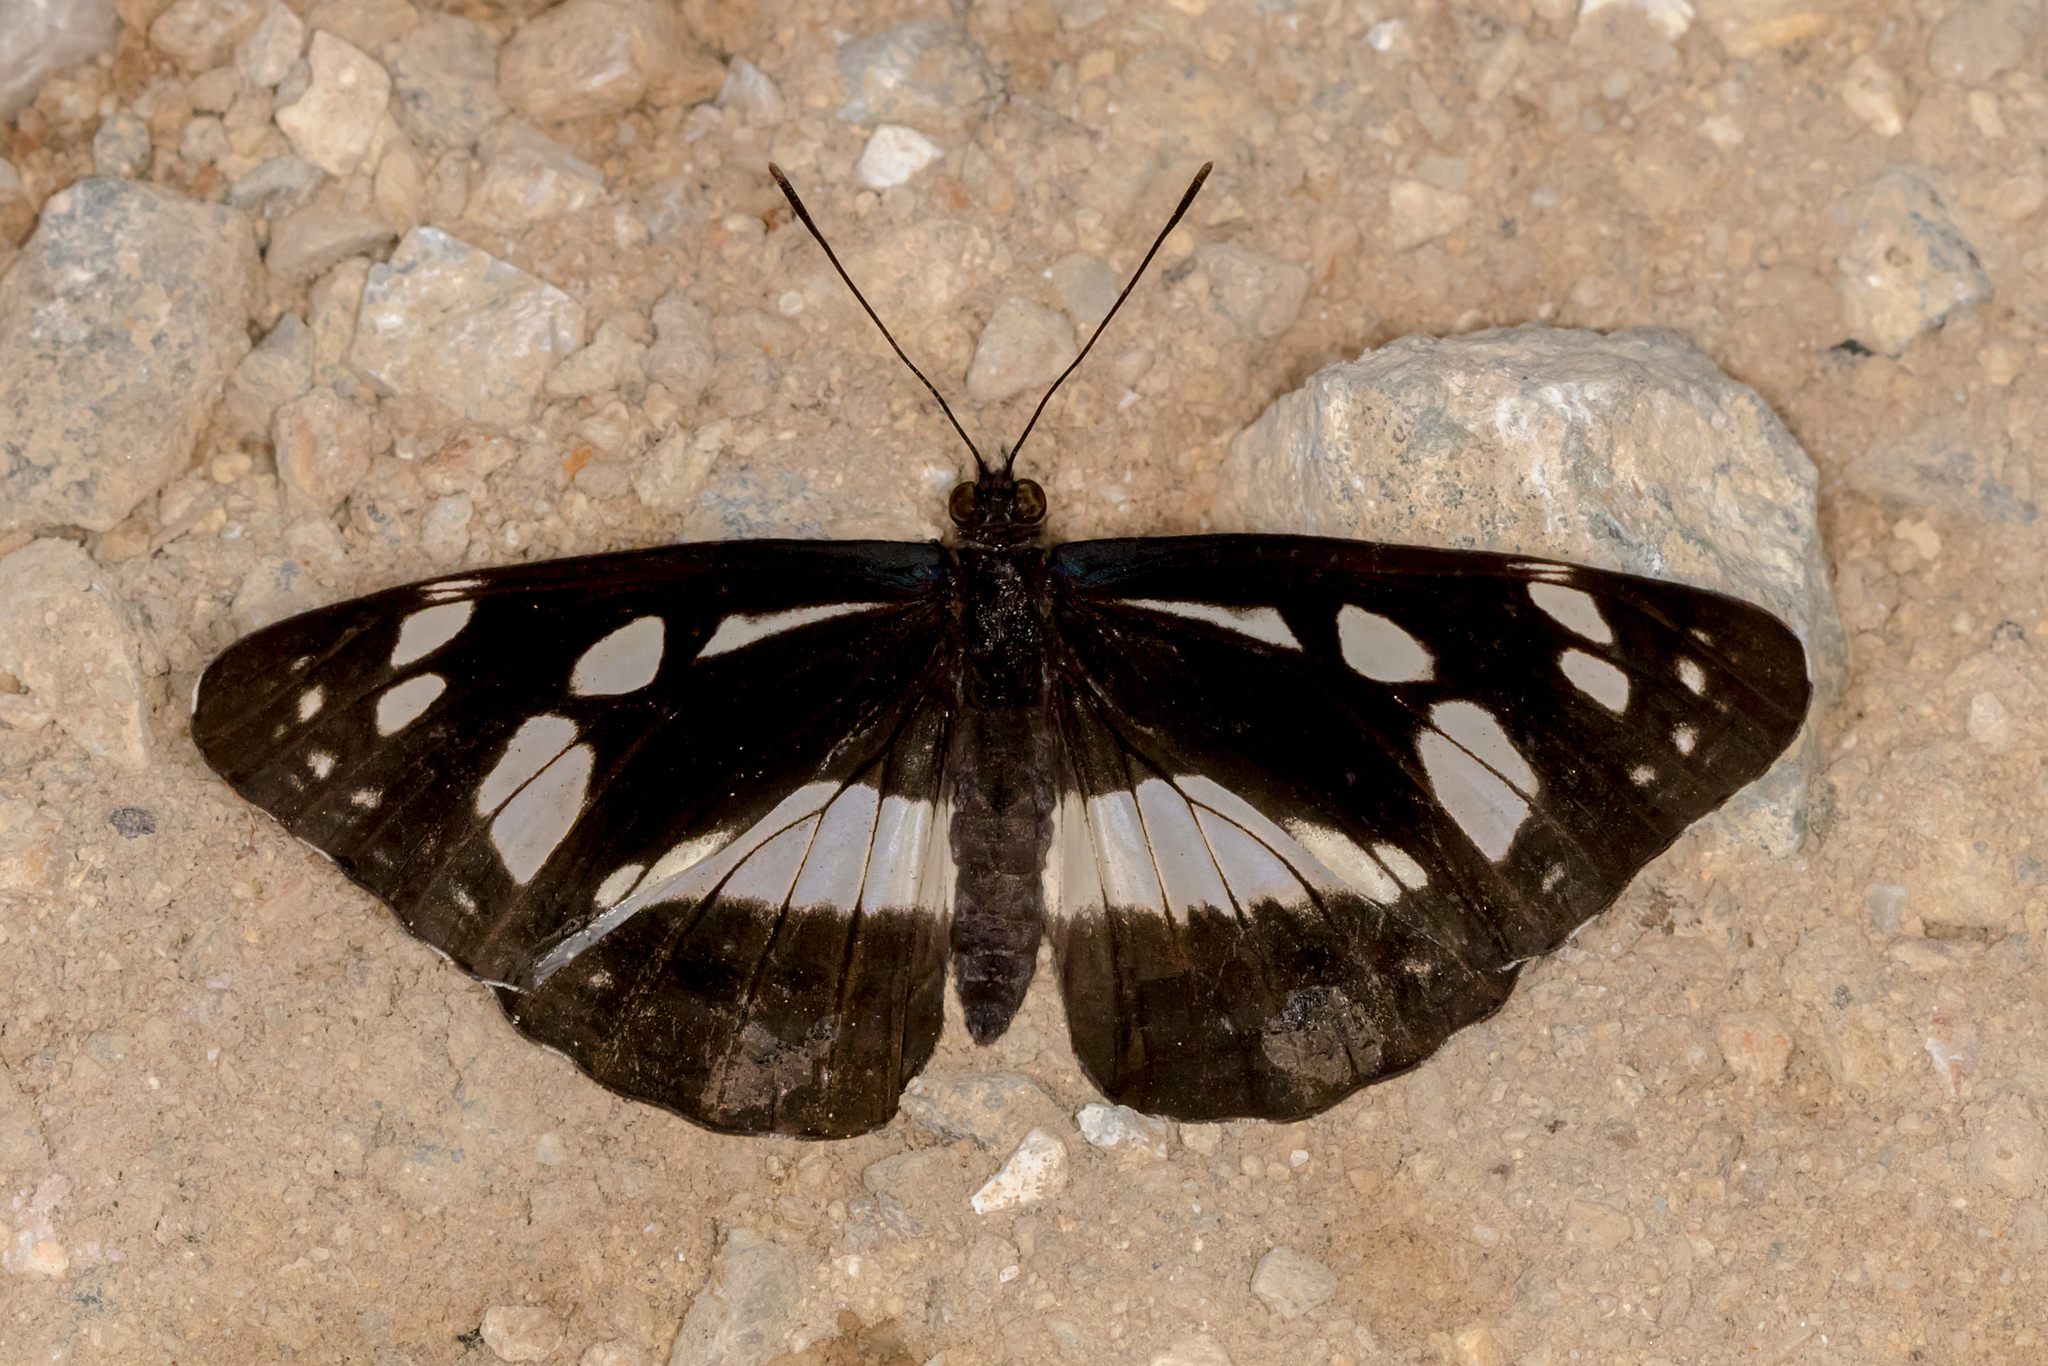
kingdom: Animalia
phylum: Arthropoda
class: Insecta
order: Lepidoptera
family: Nymphalidae
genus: Phaedyma
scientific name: Phaedyma shepherdi
